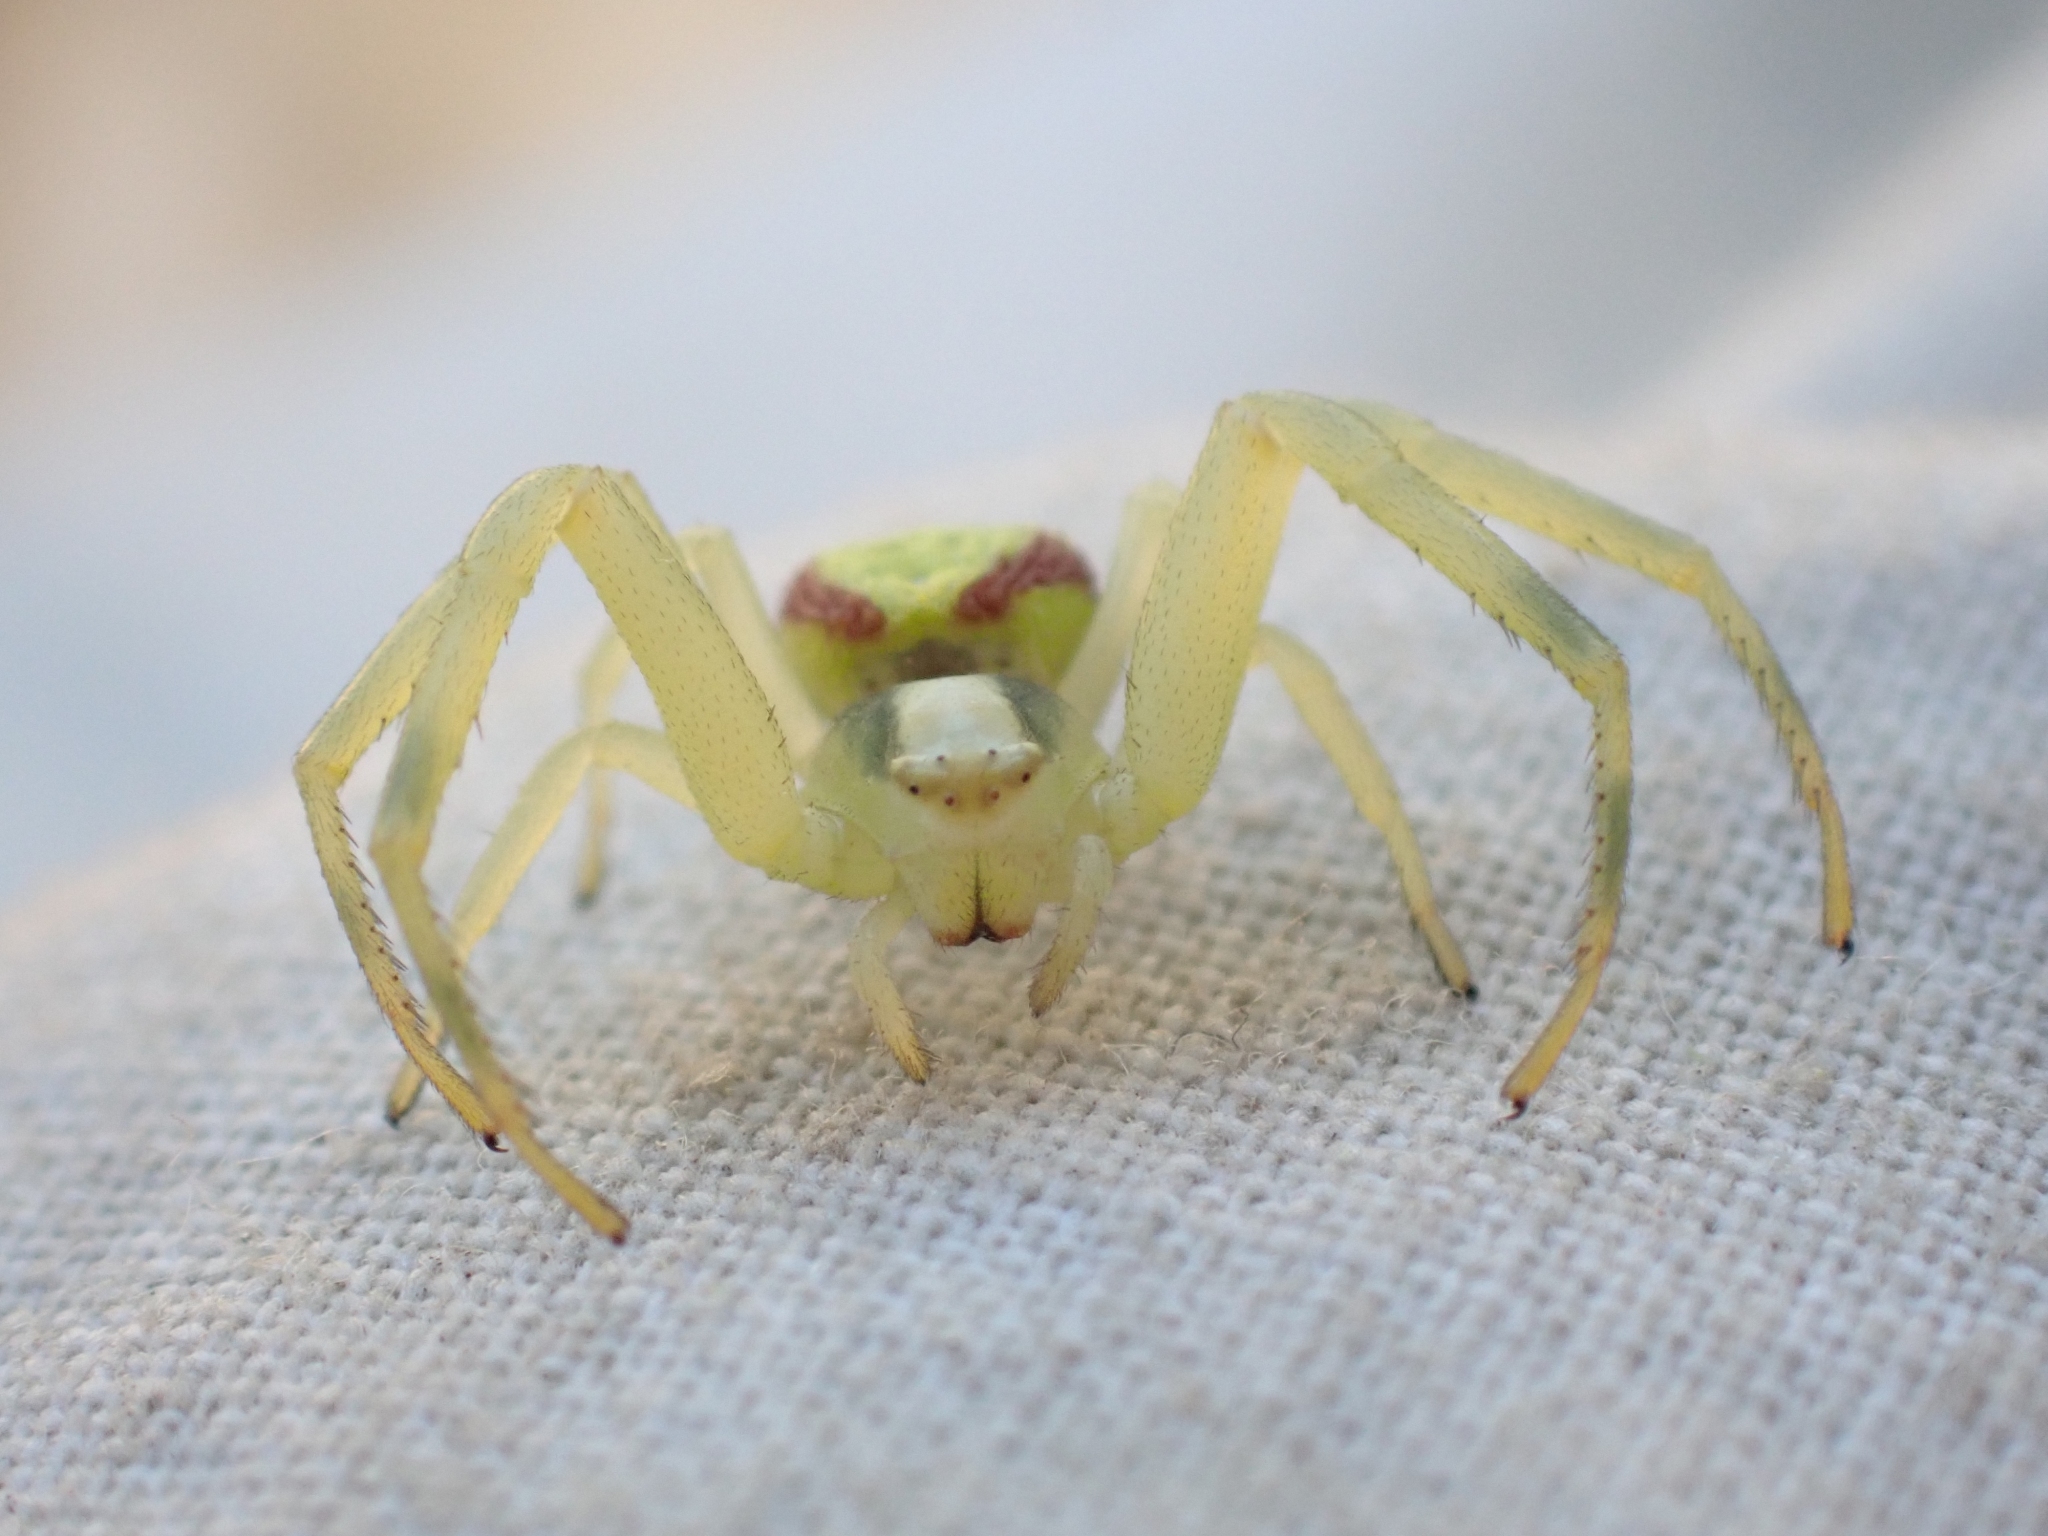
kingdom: Animalia
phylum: Arthropoda
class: Arachnida
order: Araneae
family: Thomisidae
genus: Misumena
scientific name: Misumena vatia
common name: Goldenrod crab spider
